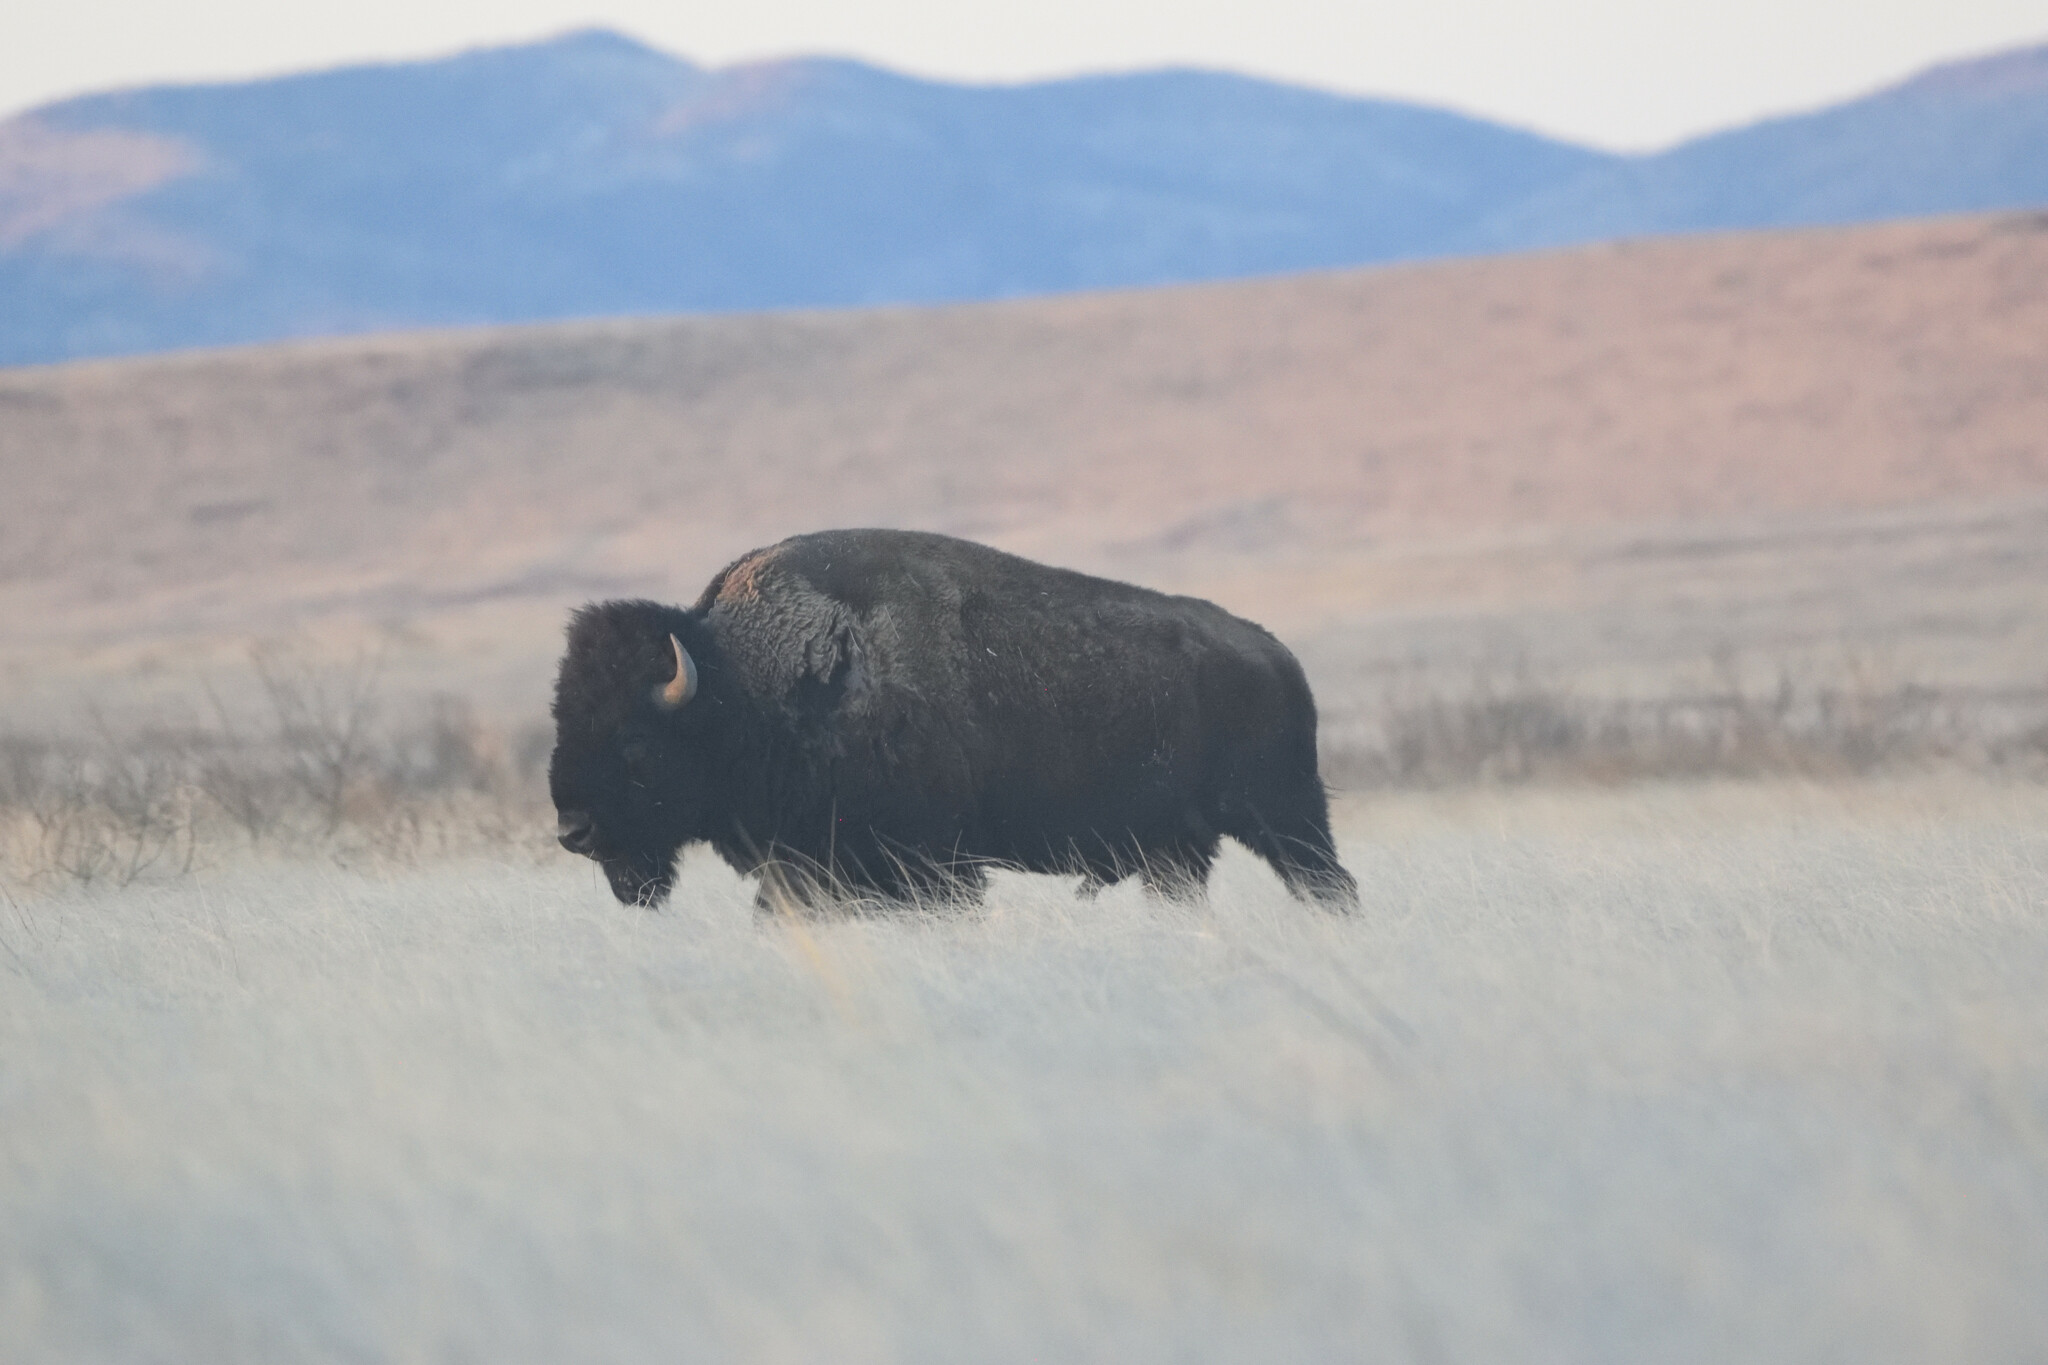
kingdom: Animalia
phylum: Chordata
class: Mammalia
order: Artiodactyla
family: Bovidae
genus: Bison
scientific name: Bison bison
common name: American bison
